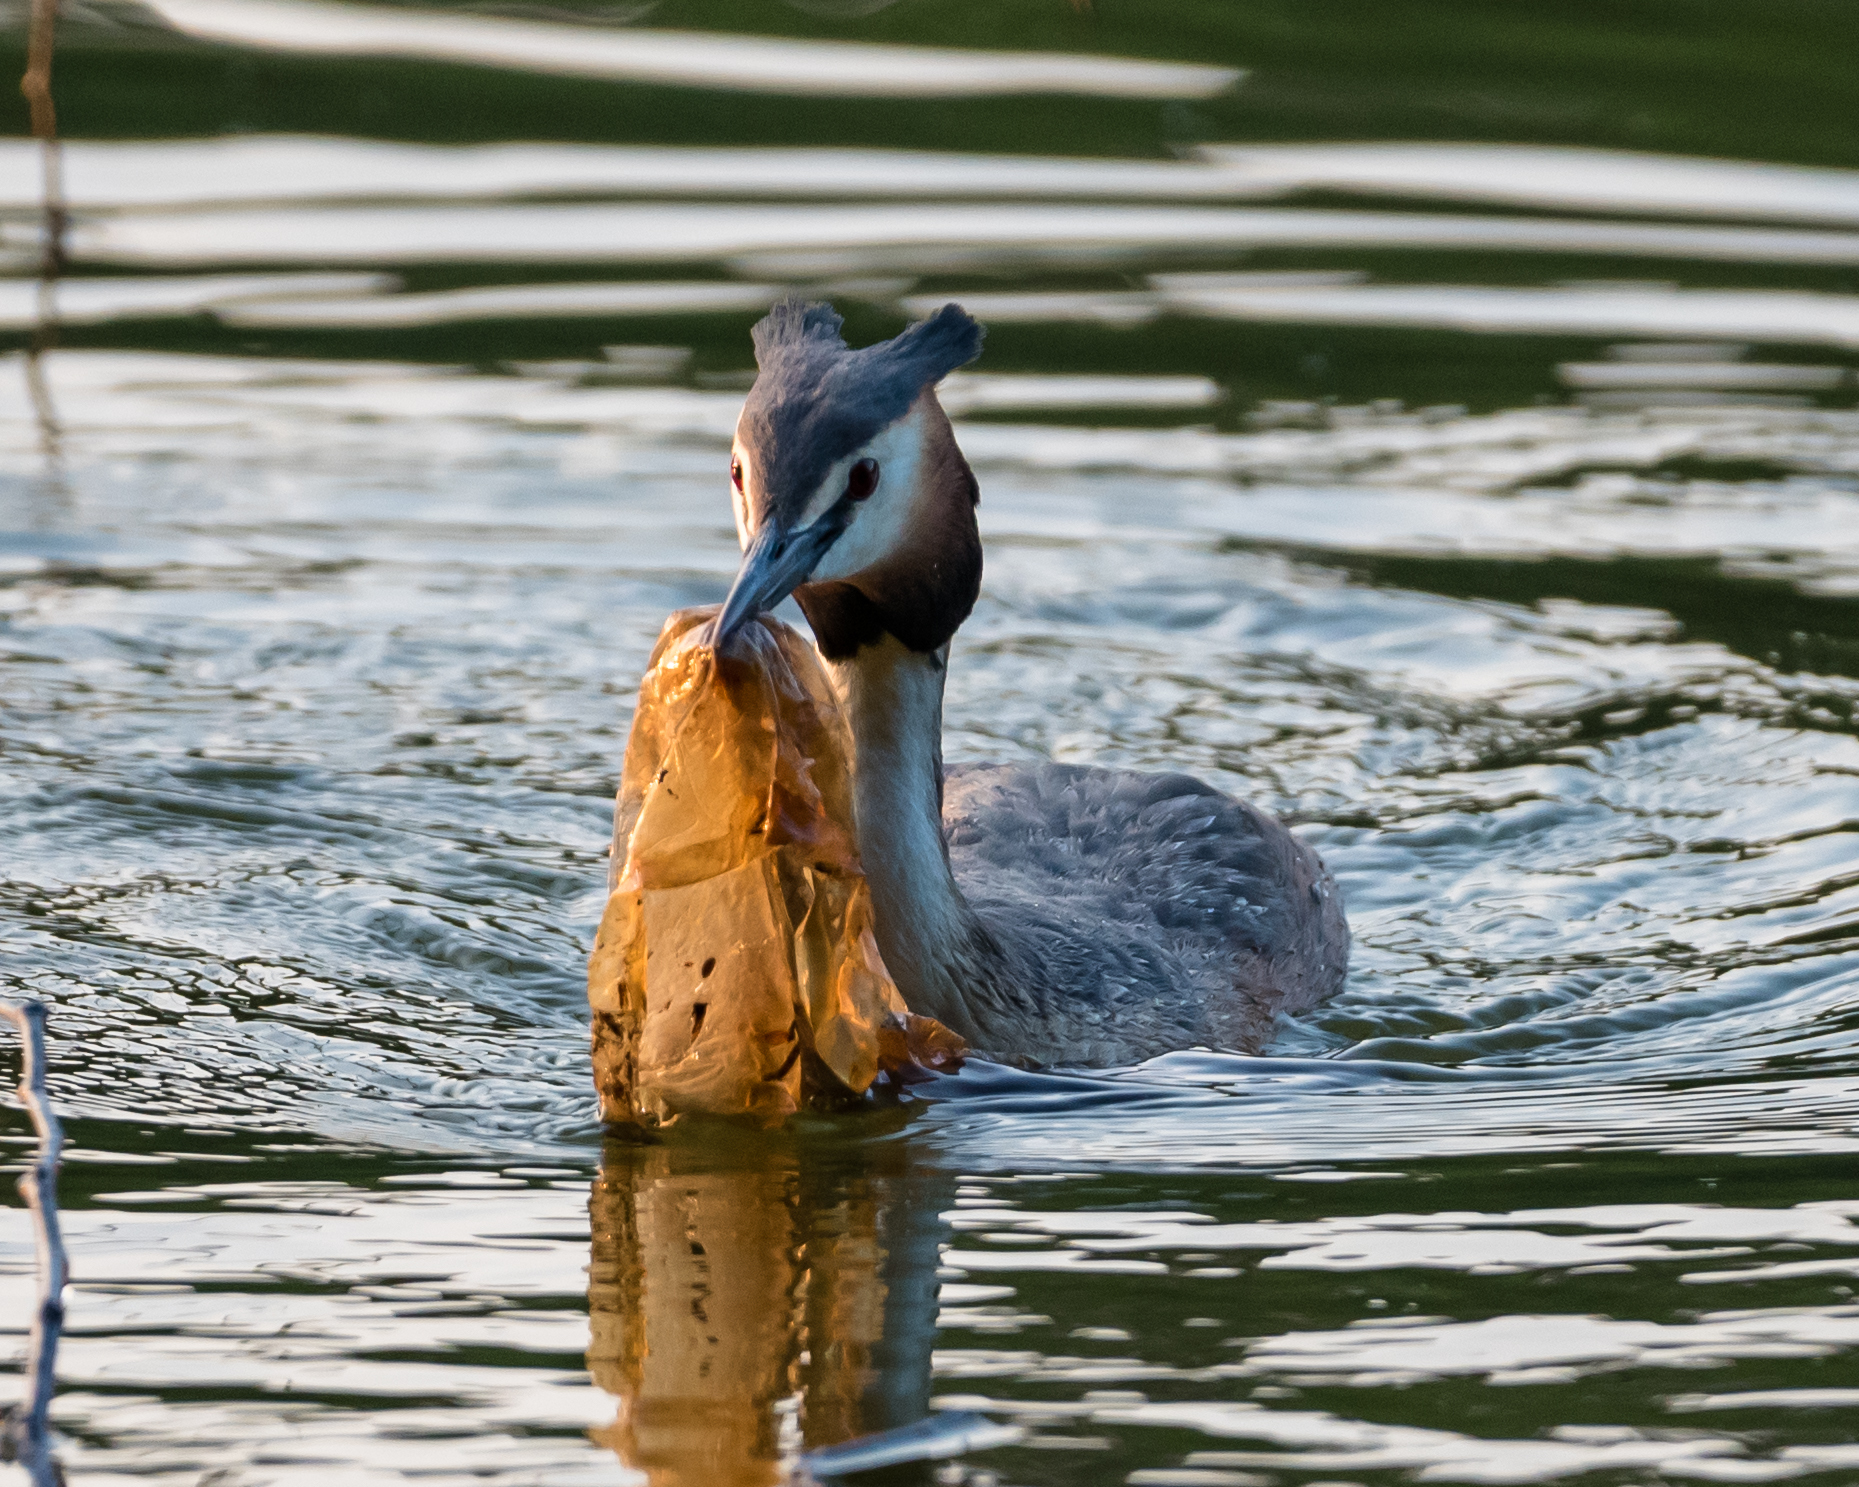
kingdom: Animalia
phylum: Chordata
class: Aves
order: Podicipediformes
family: Podicipedidae
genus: Podiceps
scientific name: Podiceps cristatus
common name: Great crested grebe
